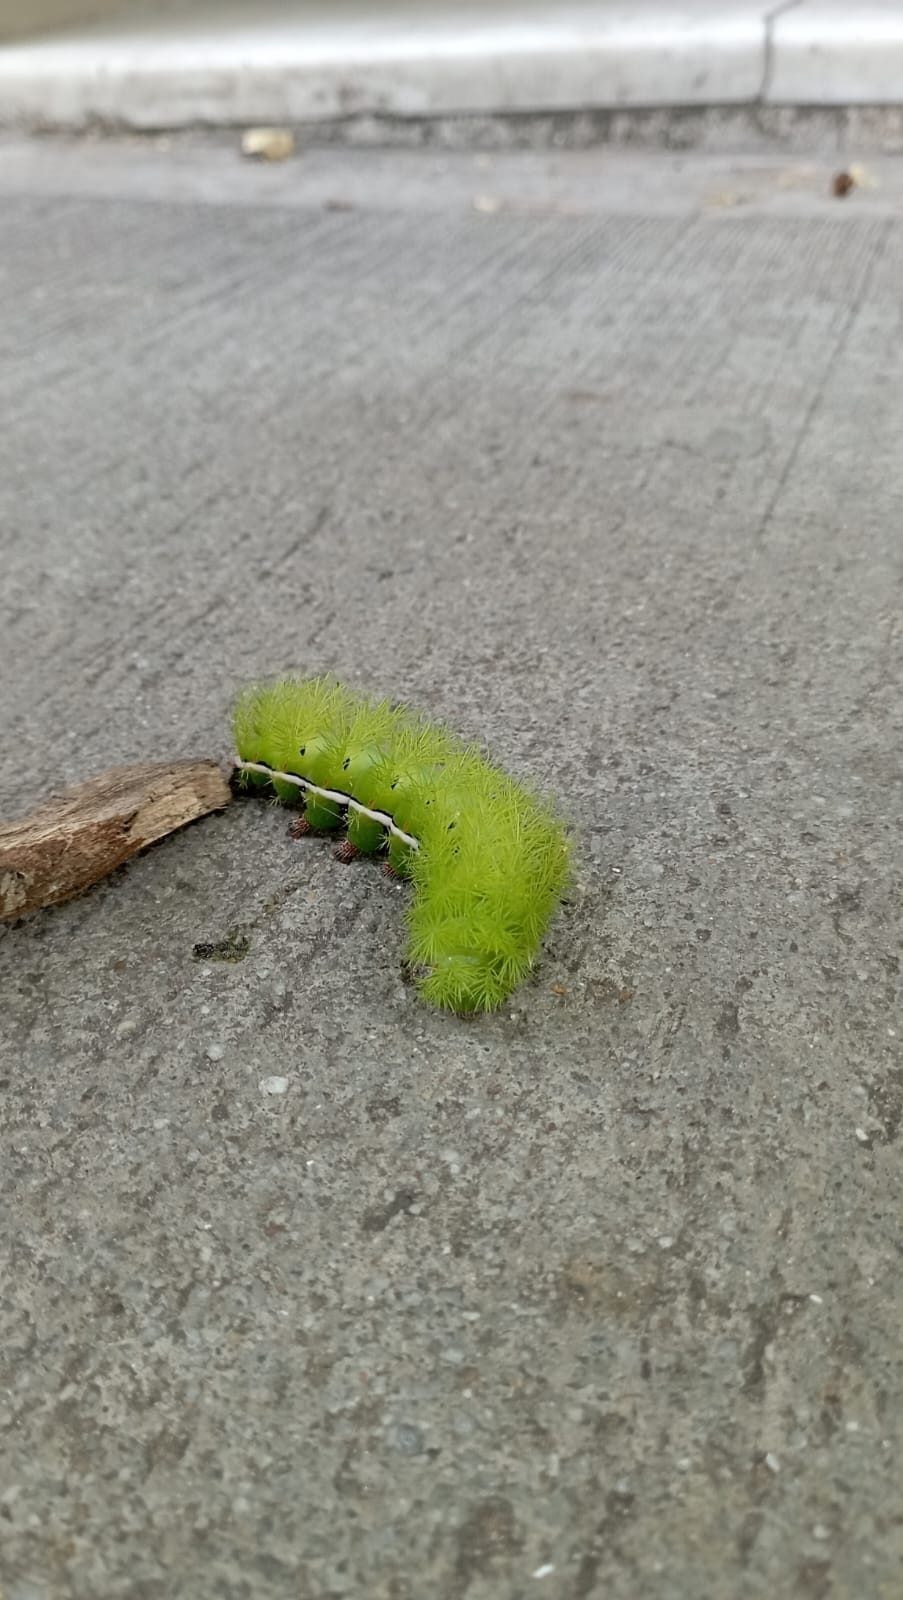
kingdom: Animalia
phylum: Arthropoda
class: Insecta
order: Lepidoptera
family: Saturniidae
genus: Automeris
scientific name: Automeris coresus
